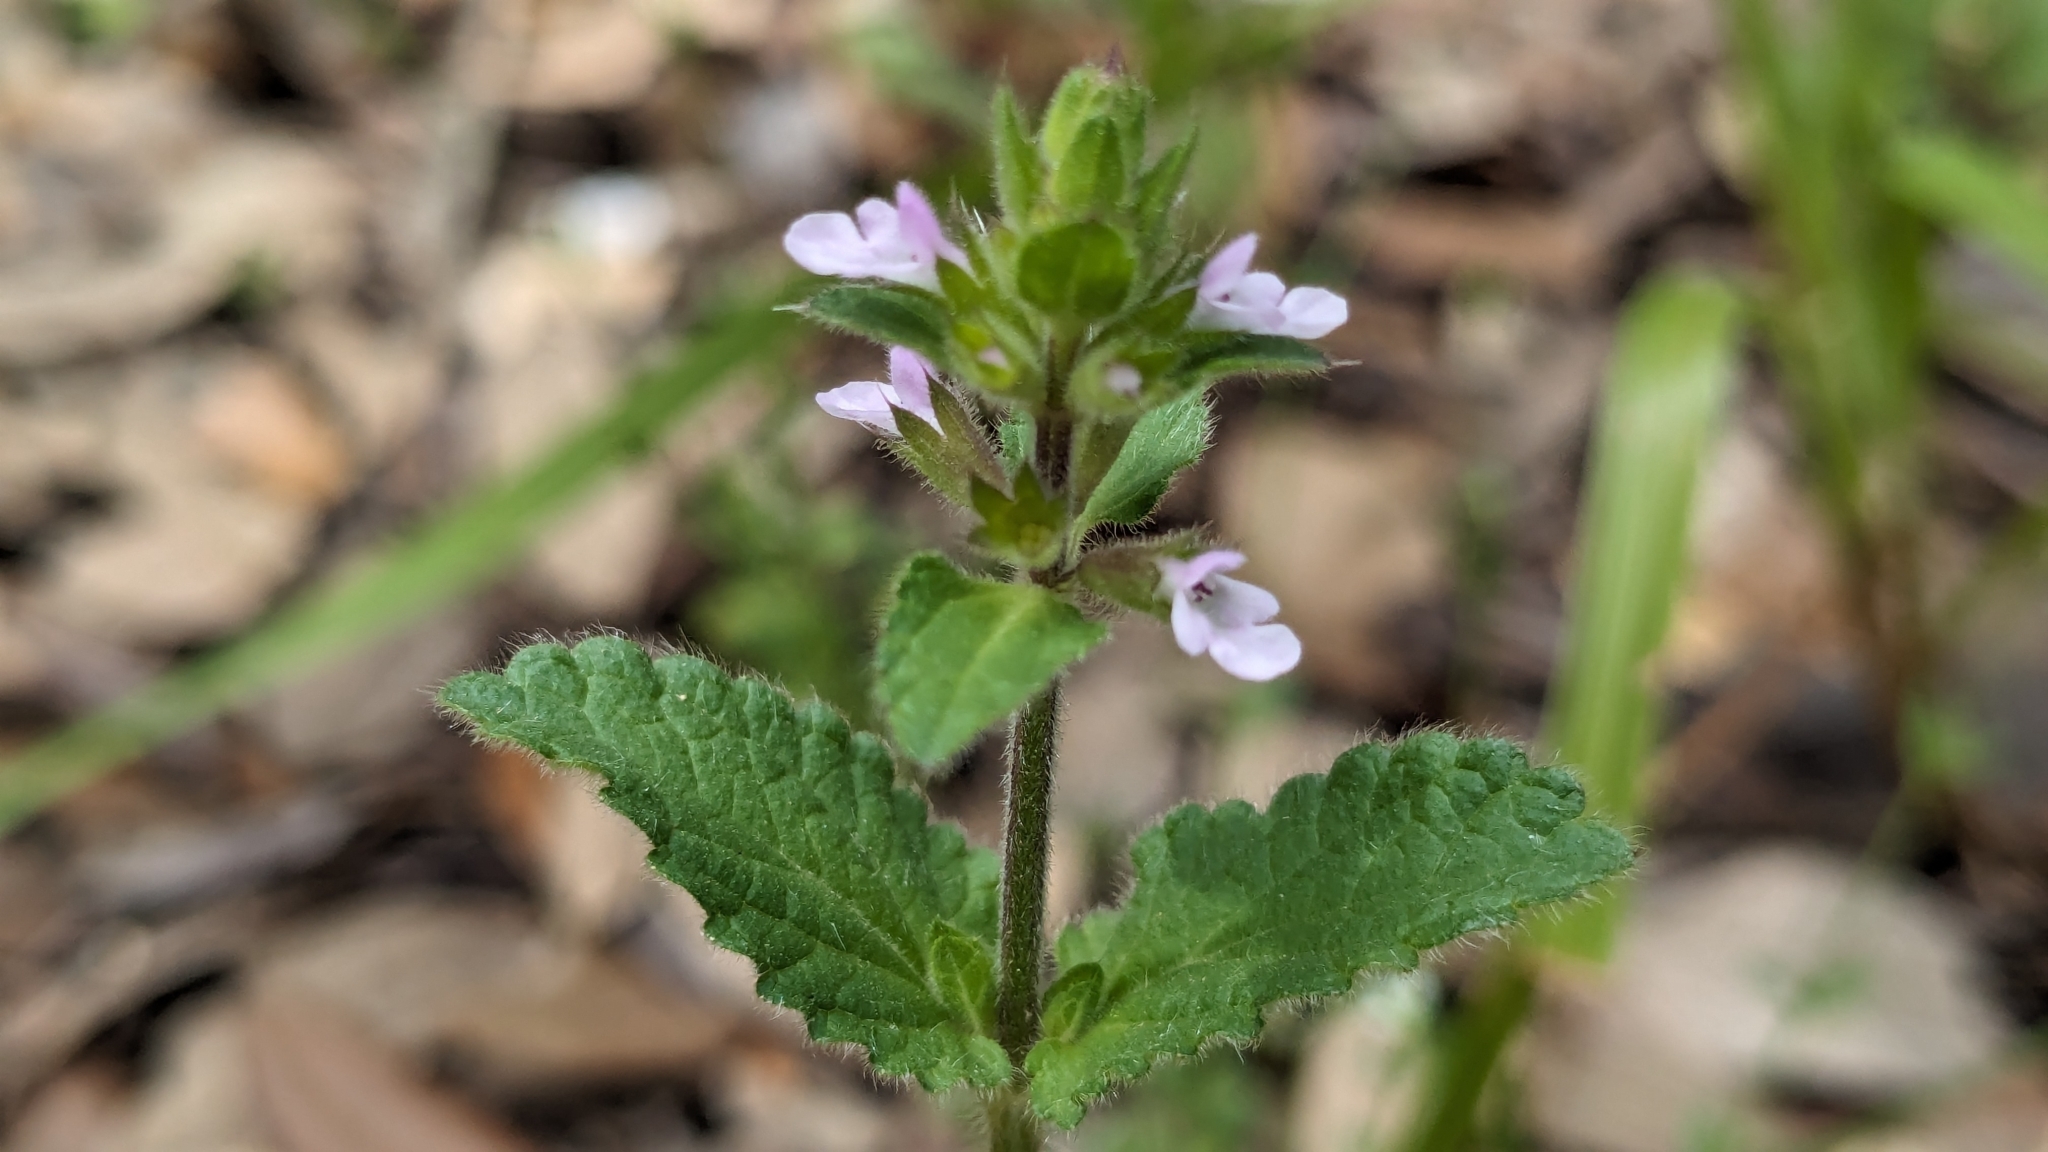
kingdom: Plantae
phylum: Tracheophyta
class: Magnoliopsida
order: Lamiales
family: Lamiaceae
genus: Stachys
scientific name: Stachys
